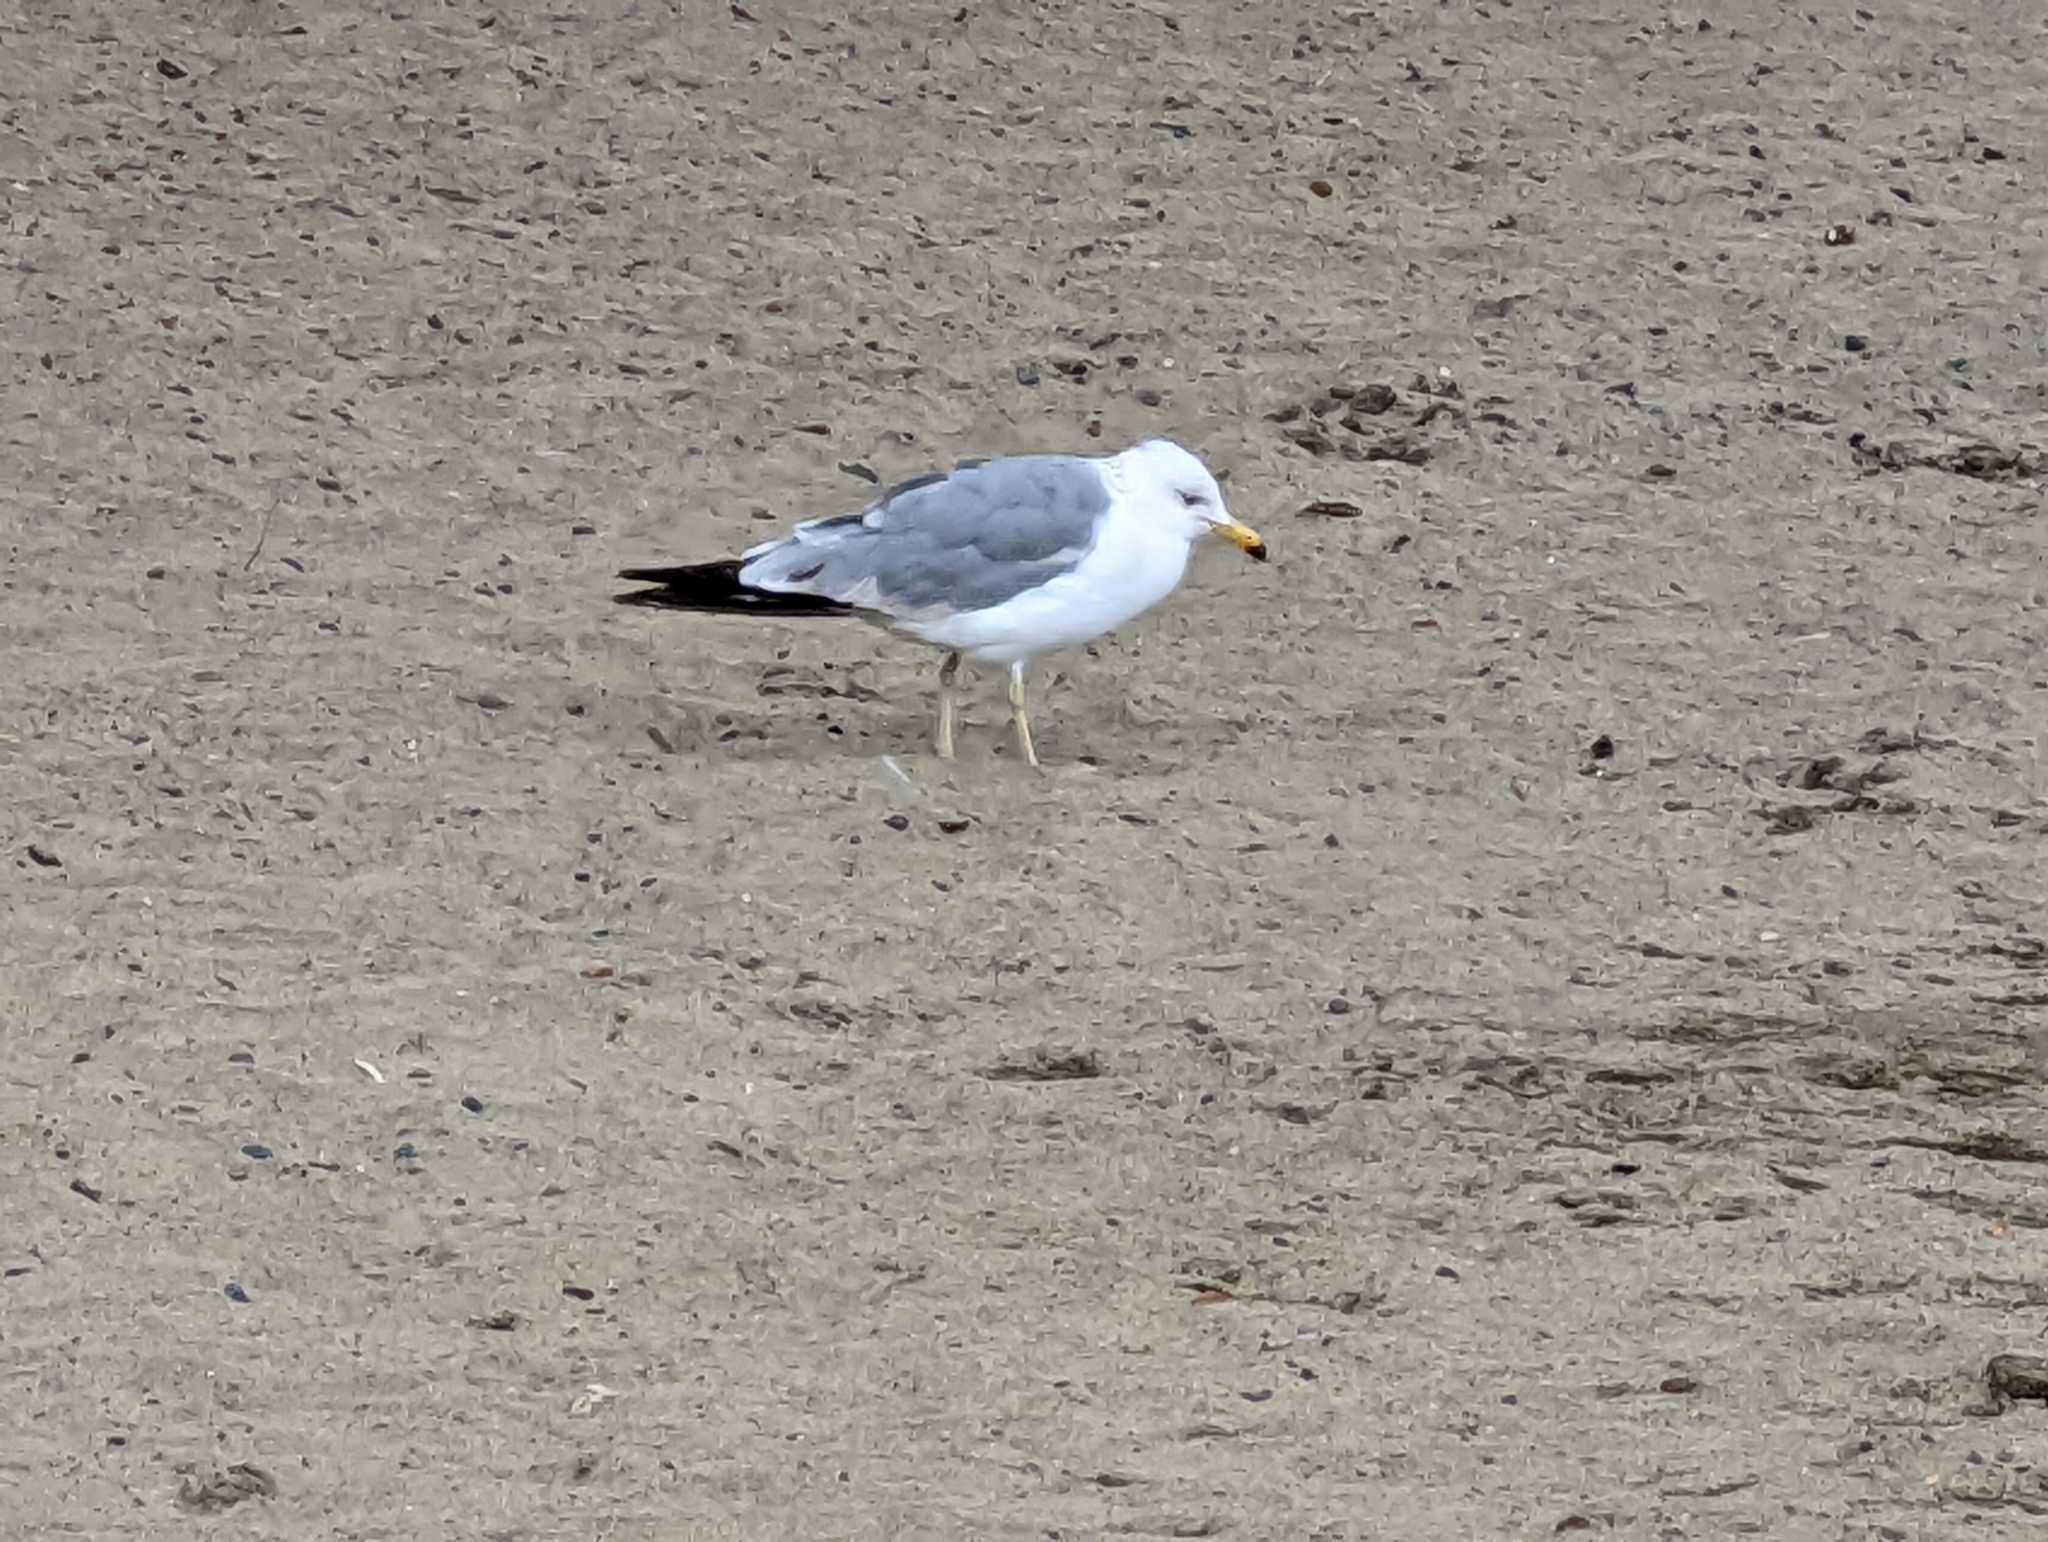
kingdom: Animalia
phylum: Chordata
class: Aves
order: Charadriiformes
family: Laridae
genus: Larus
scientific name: Larus californicus
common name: California gull
